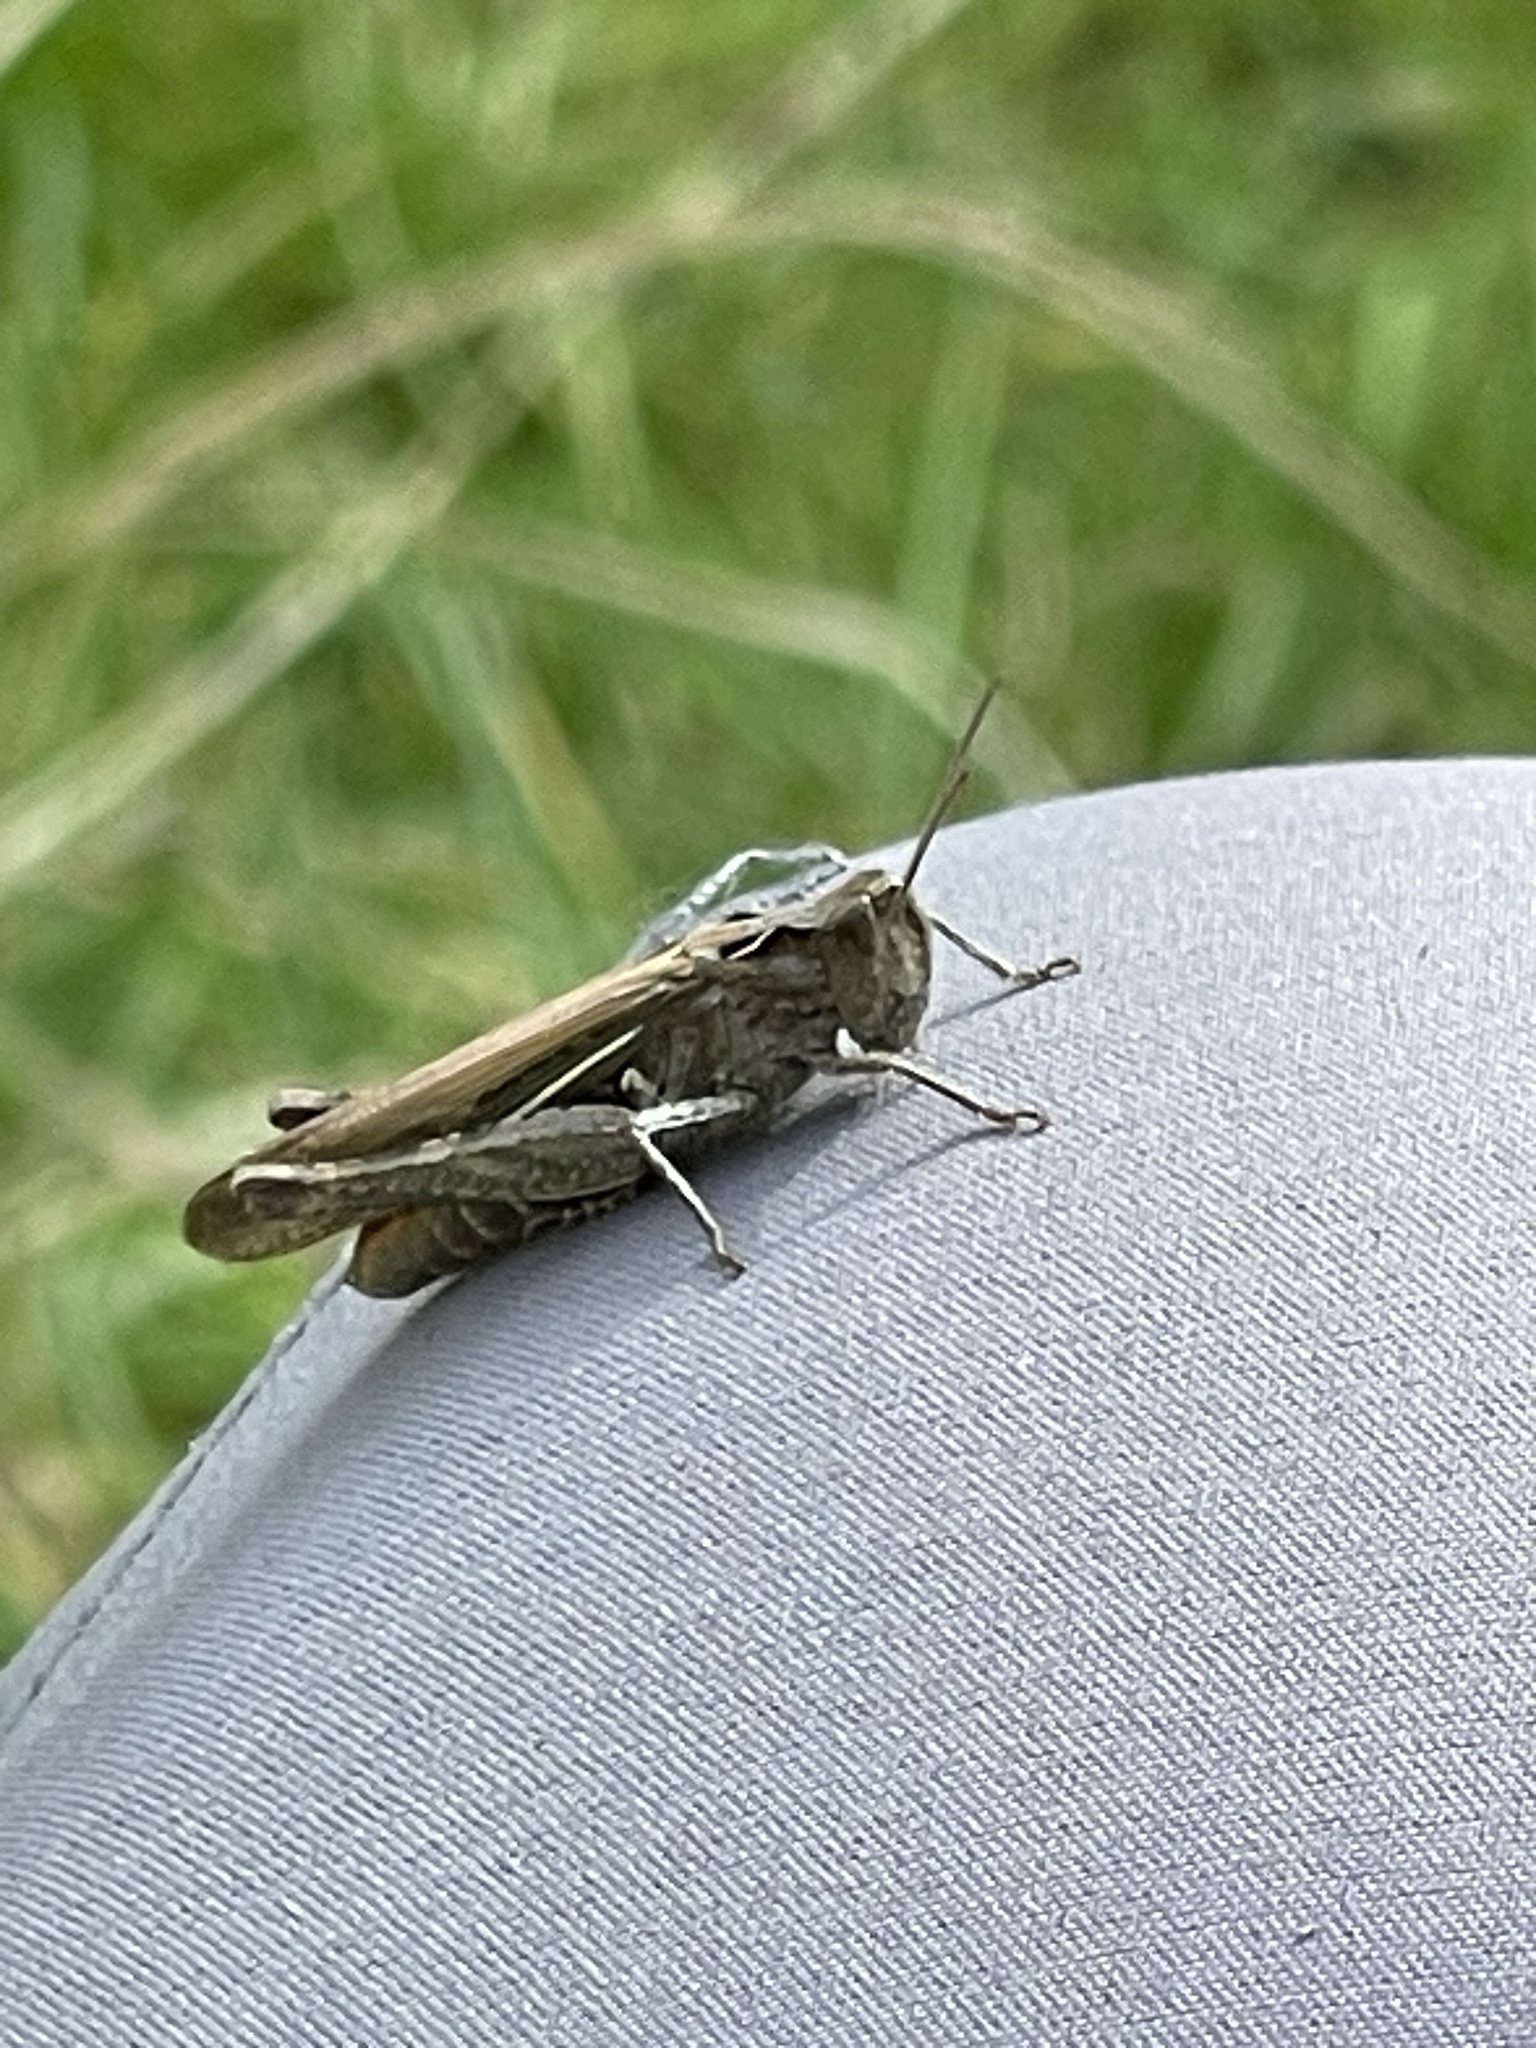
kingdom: Animalia
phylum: Arthropoda
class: Insecta
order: Orthoptera
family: Acrididae
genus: Chorthippus
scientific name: Chorthippus brunneus
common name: Field grasshopper
